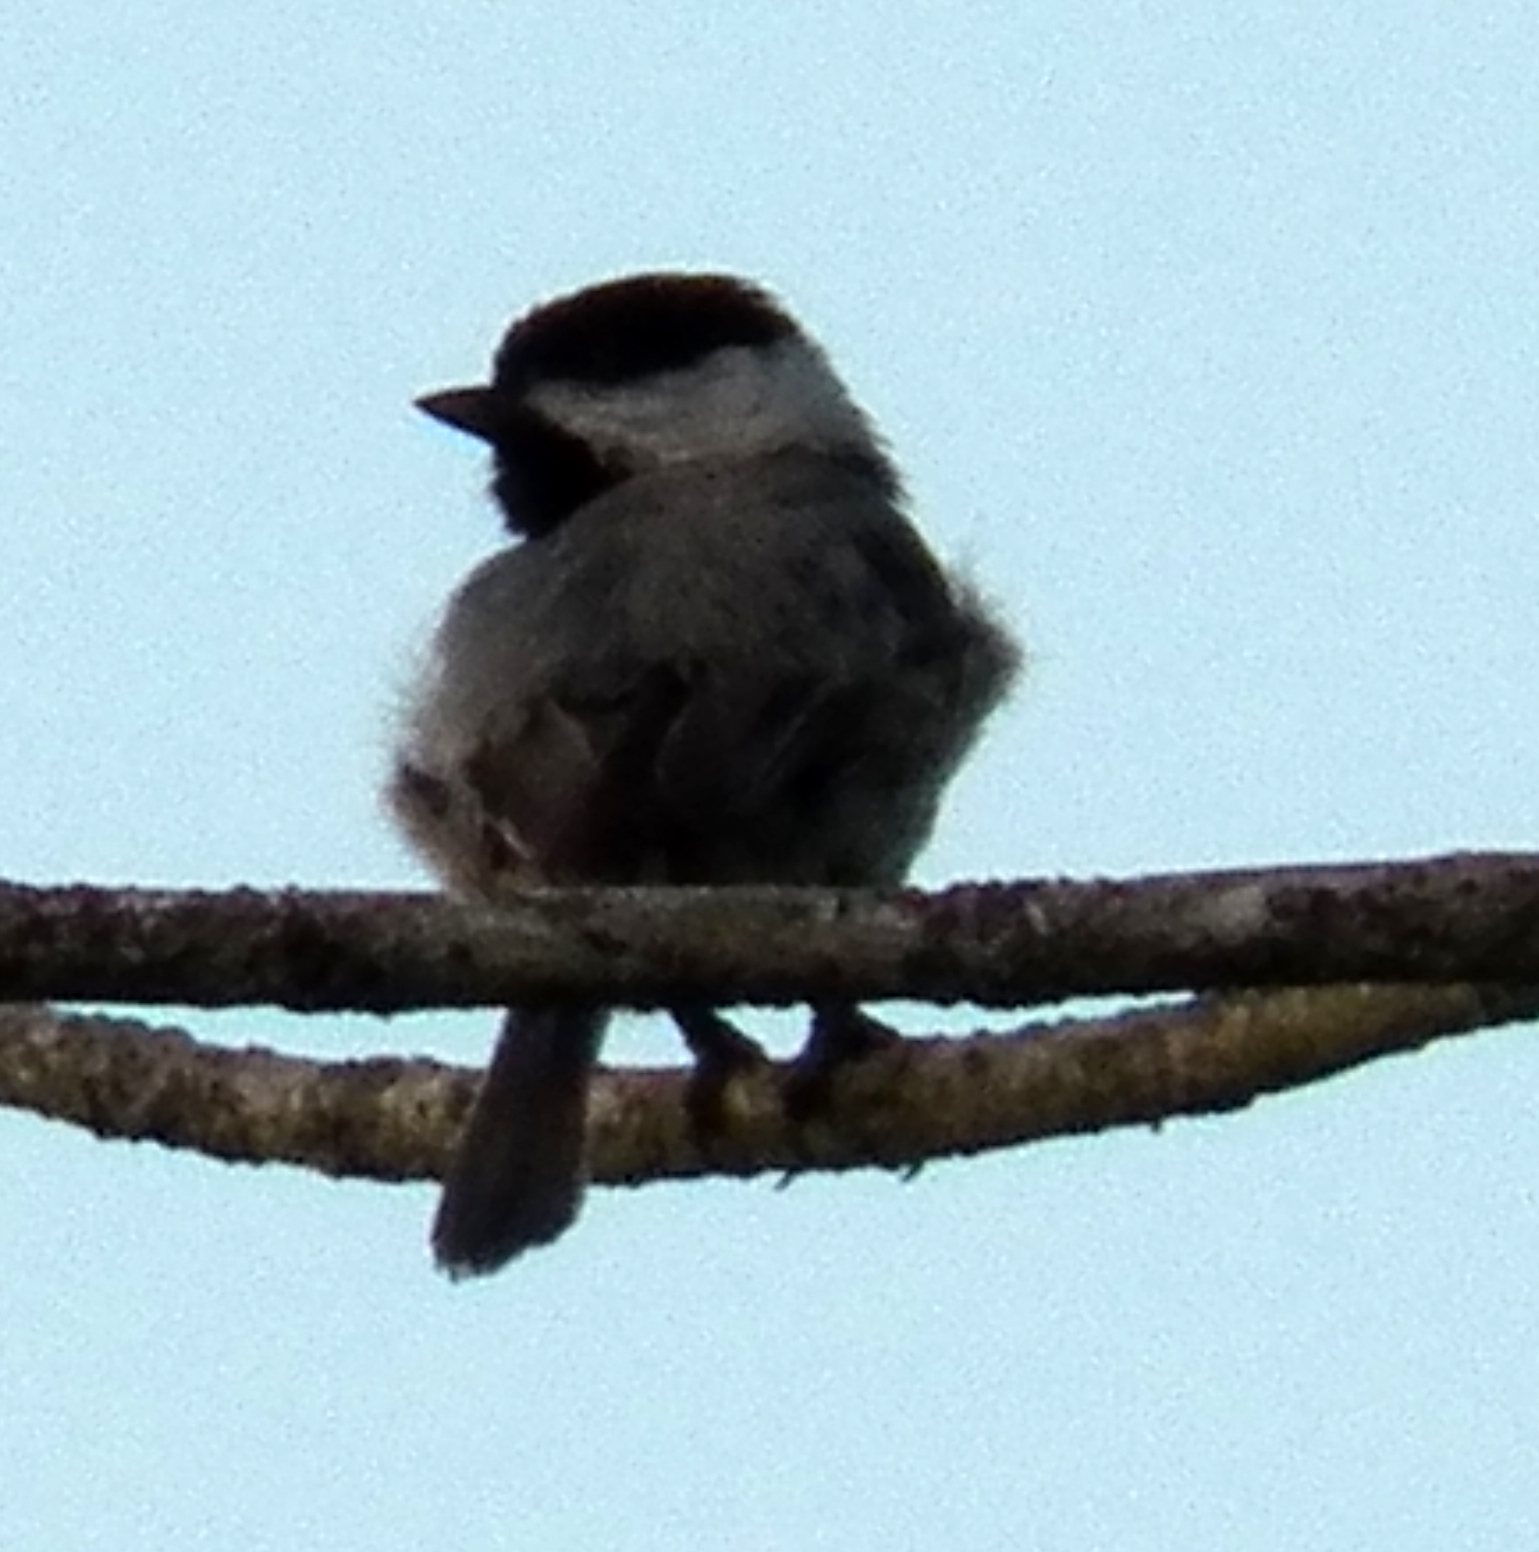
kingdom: Animalia
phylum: Chordata
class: Aves
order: Passeriformes
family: Paridae
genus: Poecile
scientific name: Poecile carolinensis
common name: Carolina chickadee
